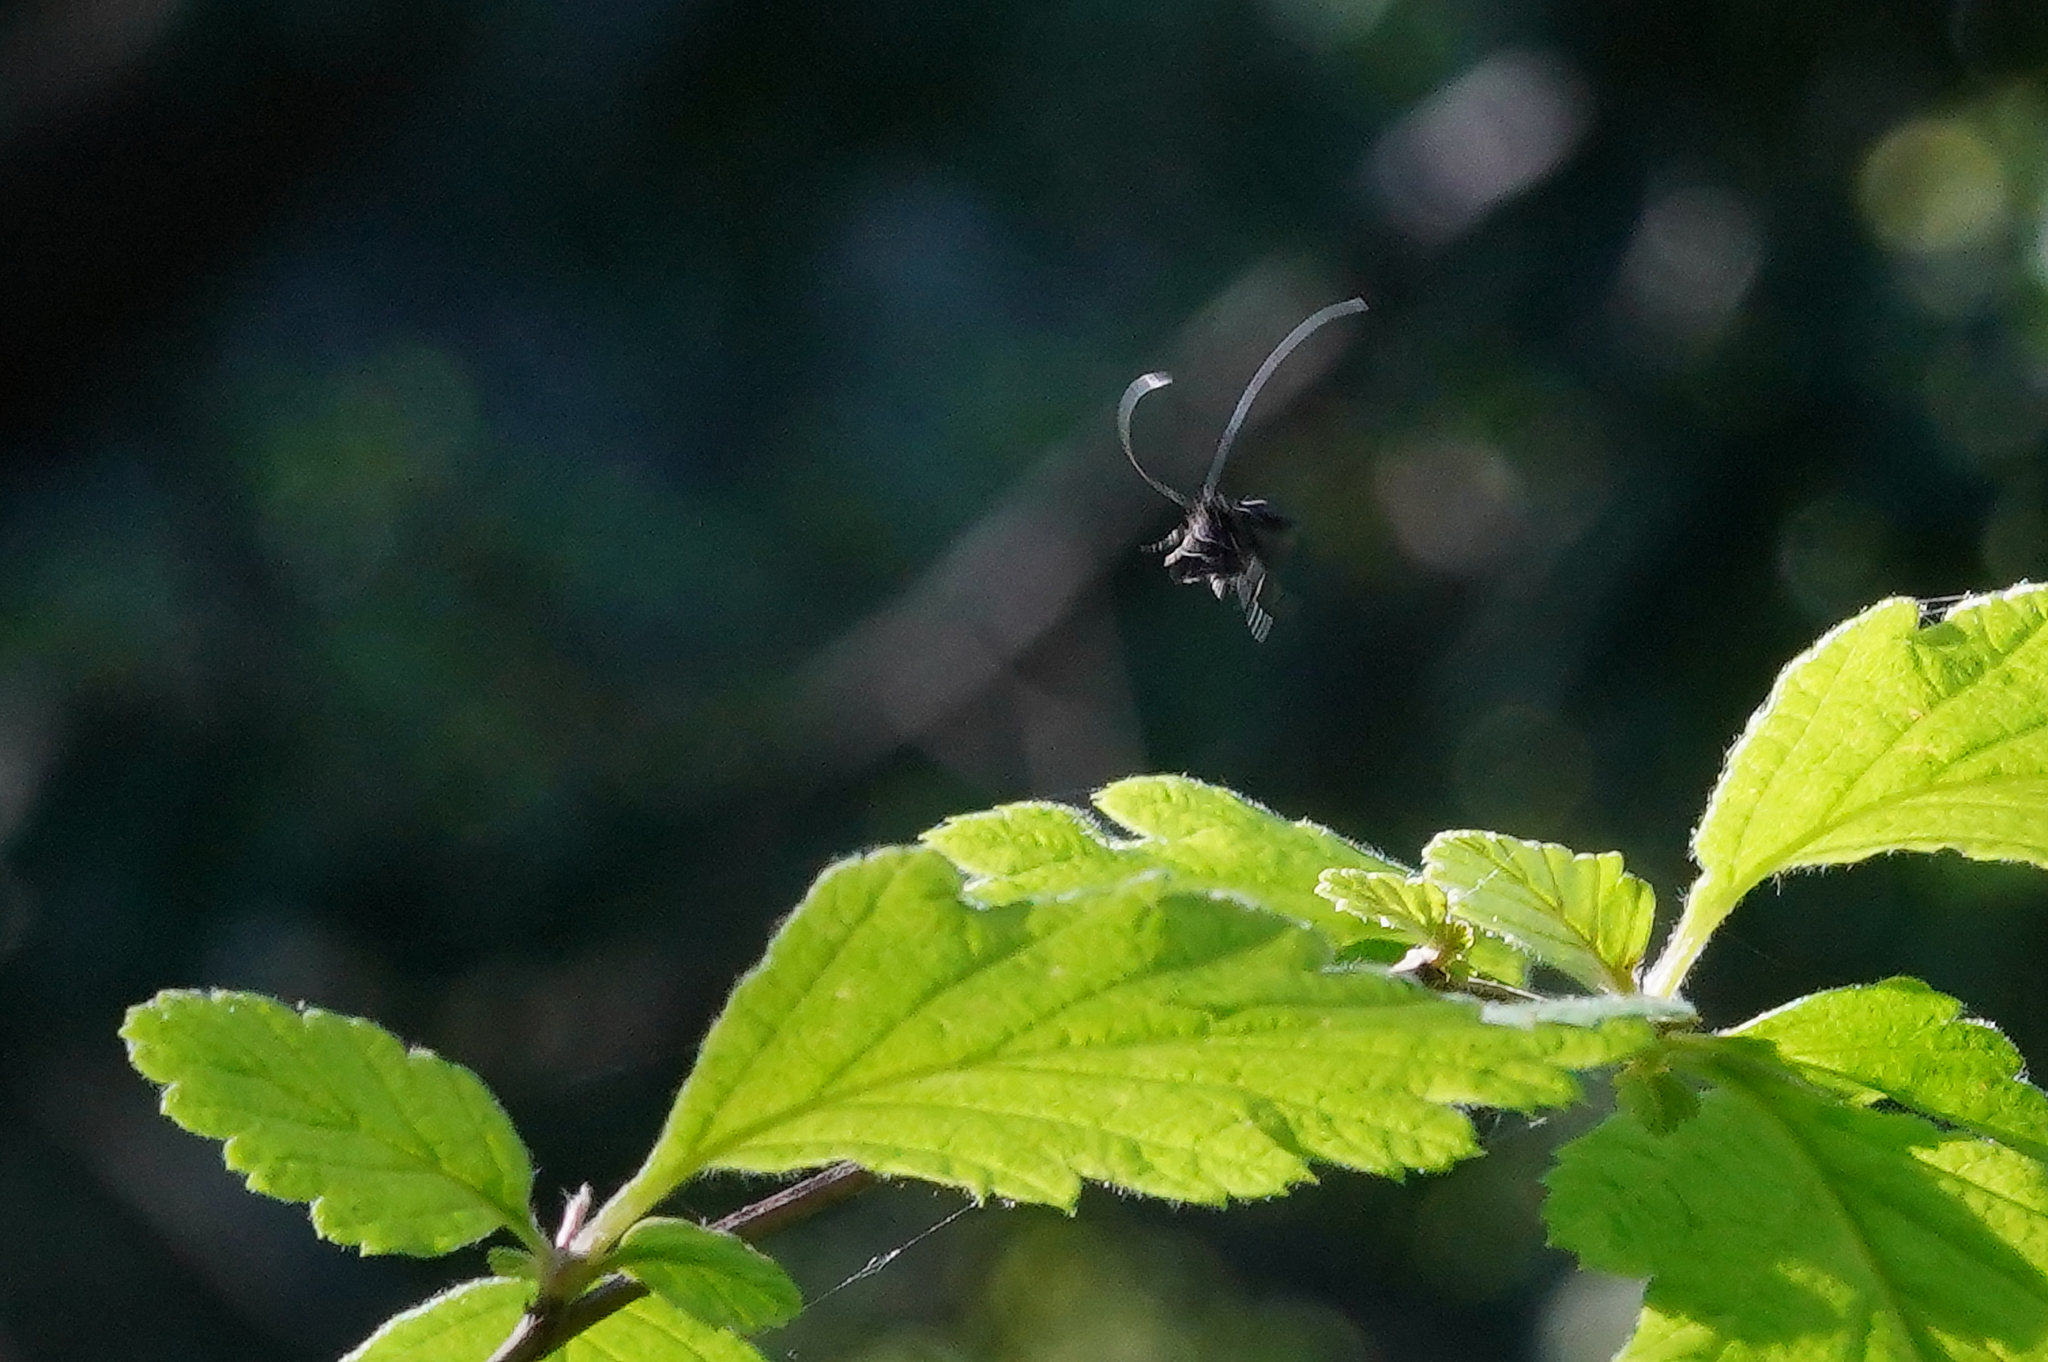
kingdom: Animalia
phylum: Arthropoda
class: Insecta
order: Lepidoptera
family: Adelidae
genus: Adela
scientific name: Adela septentrionella
